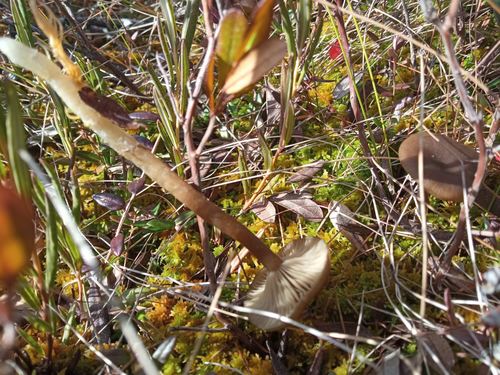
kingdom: Fungi
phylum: Basidiomycota
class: Agaricomycetes
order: Agaricales
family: Tricholomataceae
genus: Omphaliaster
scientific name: Omphaliaster borealis
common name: Northern navel
